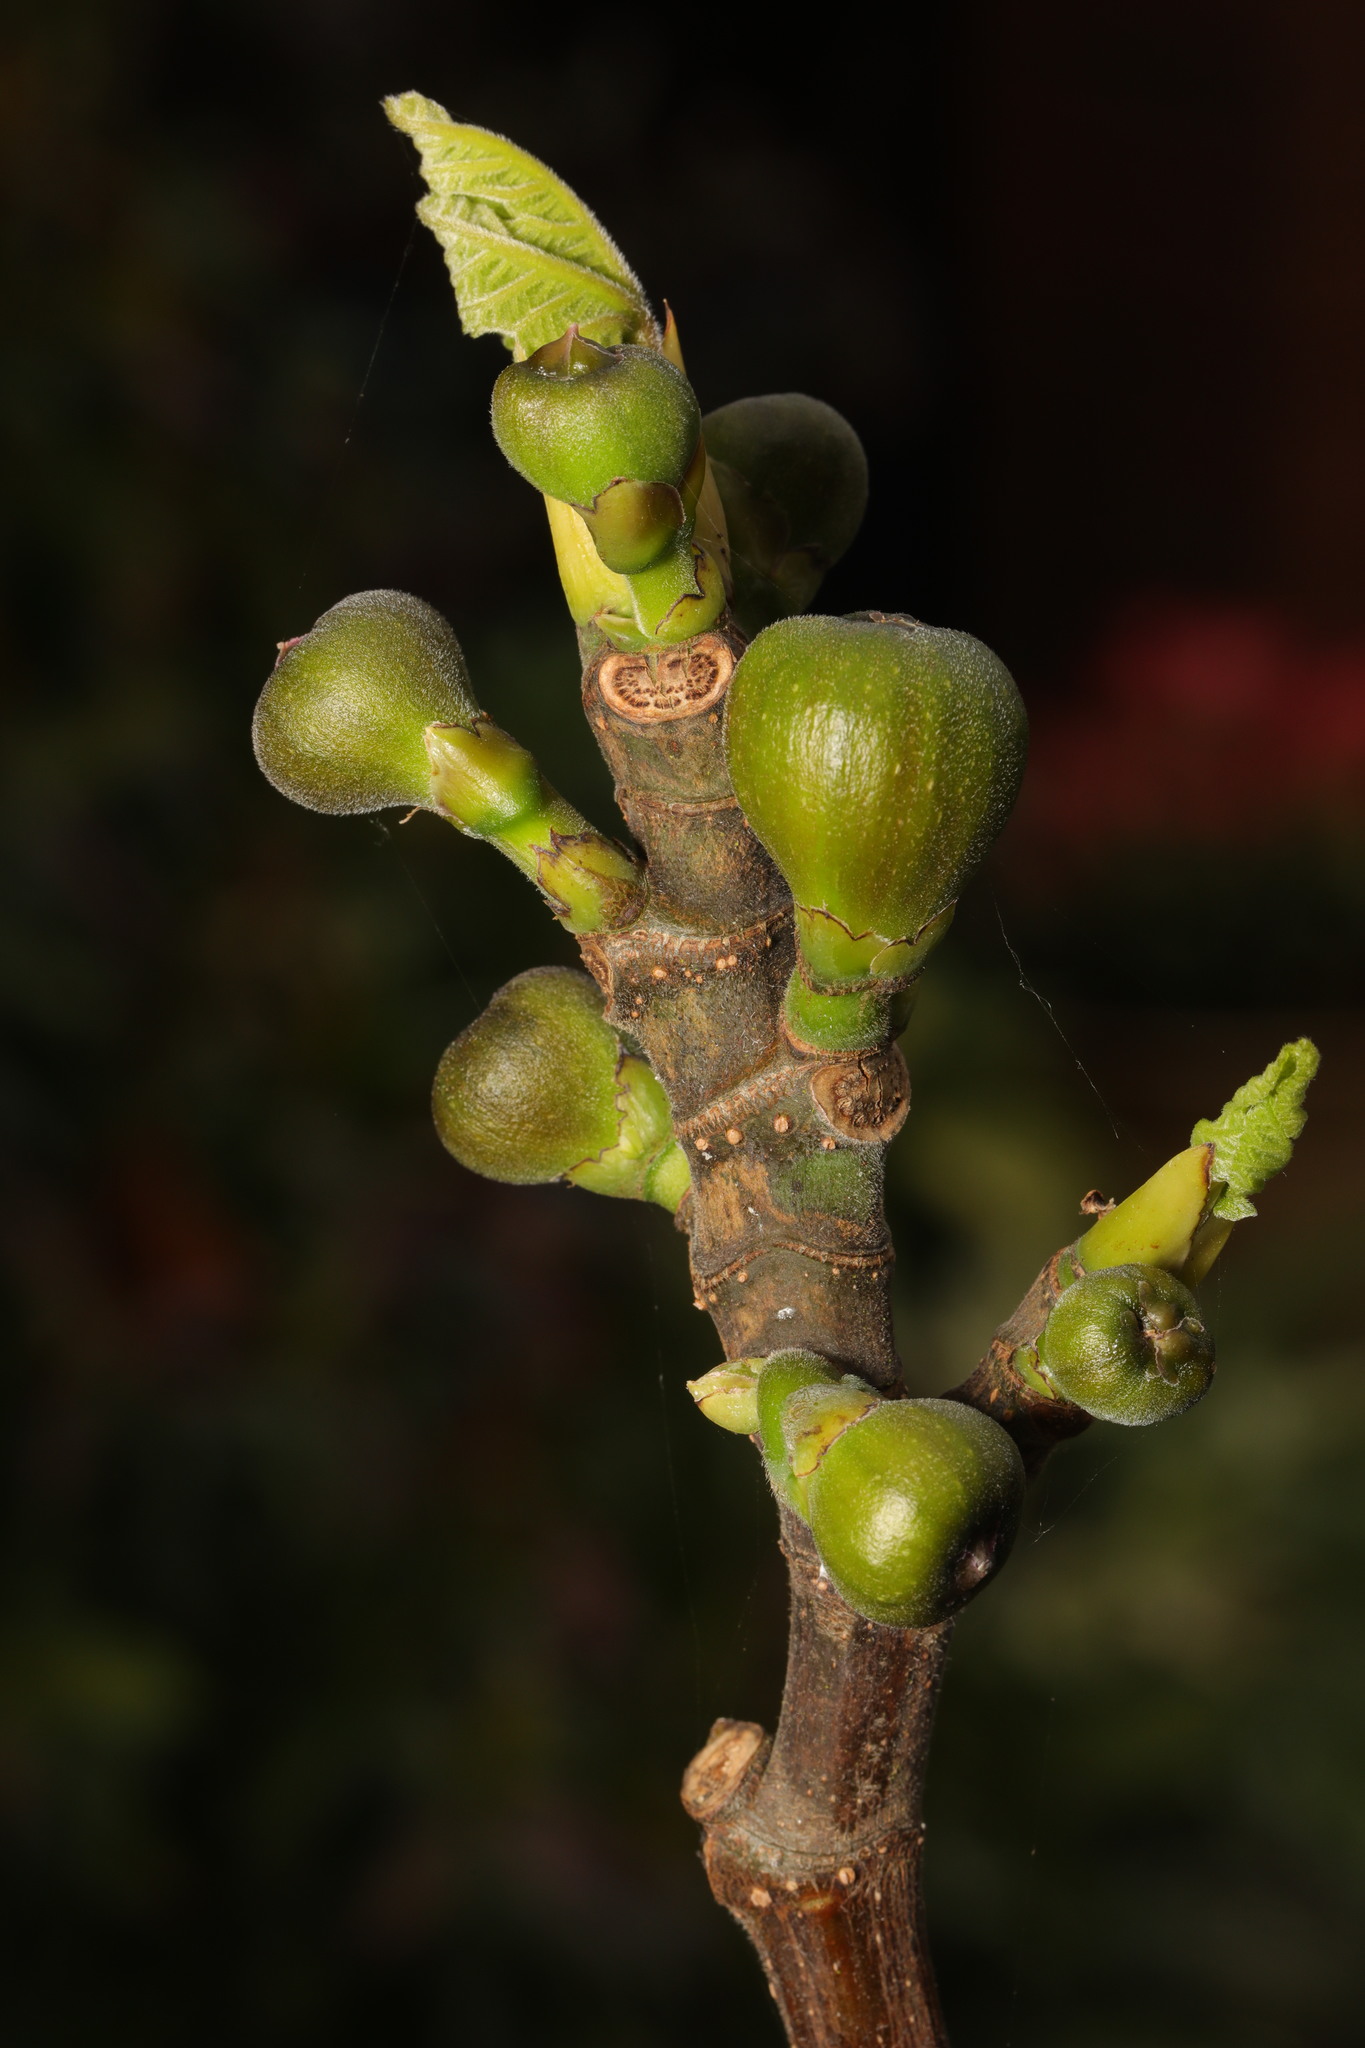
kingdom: Plantae
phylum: Tracheophyta
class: Magnoliopsida
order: Rosales
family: Moraceae
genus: Ficus
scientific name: Ficus carica
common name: Fig
